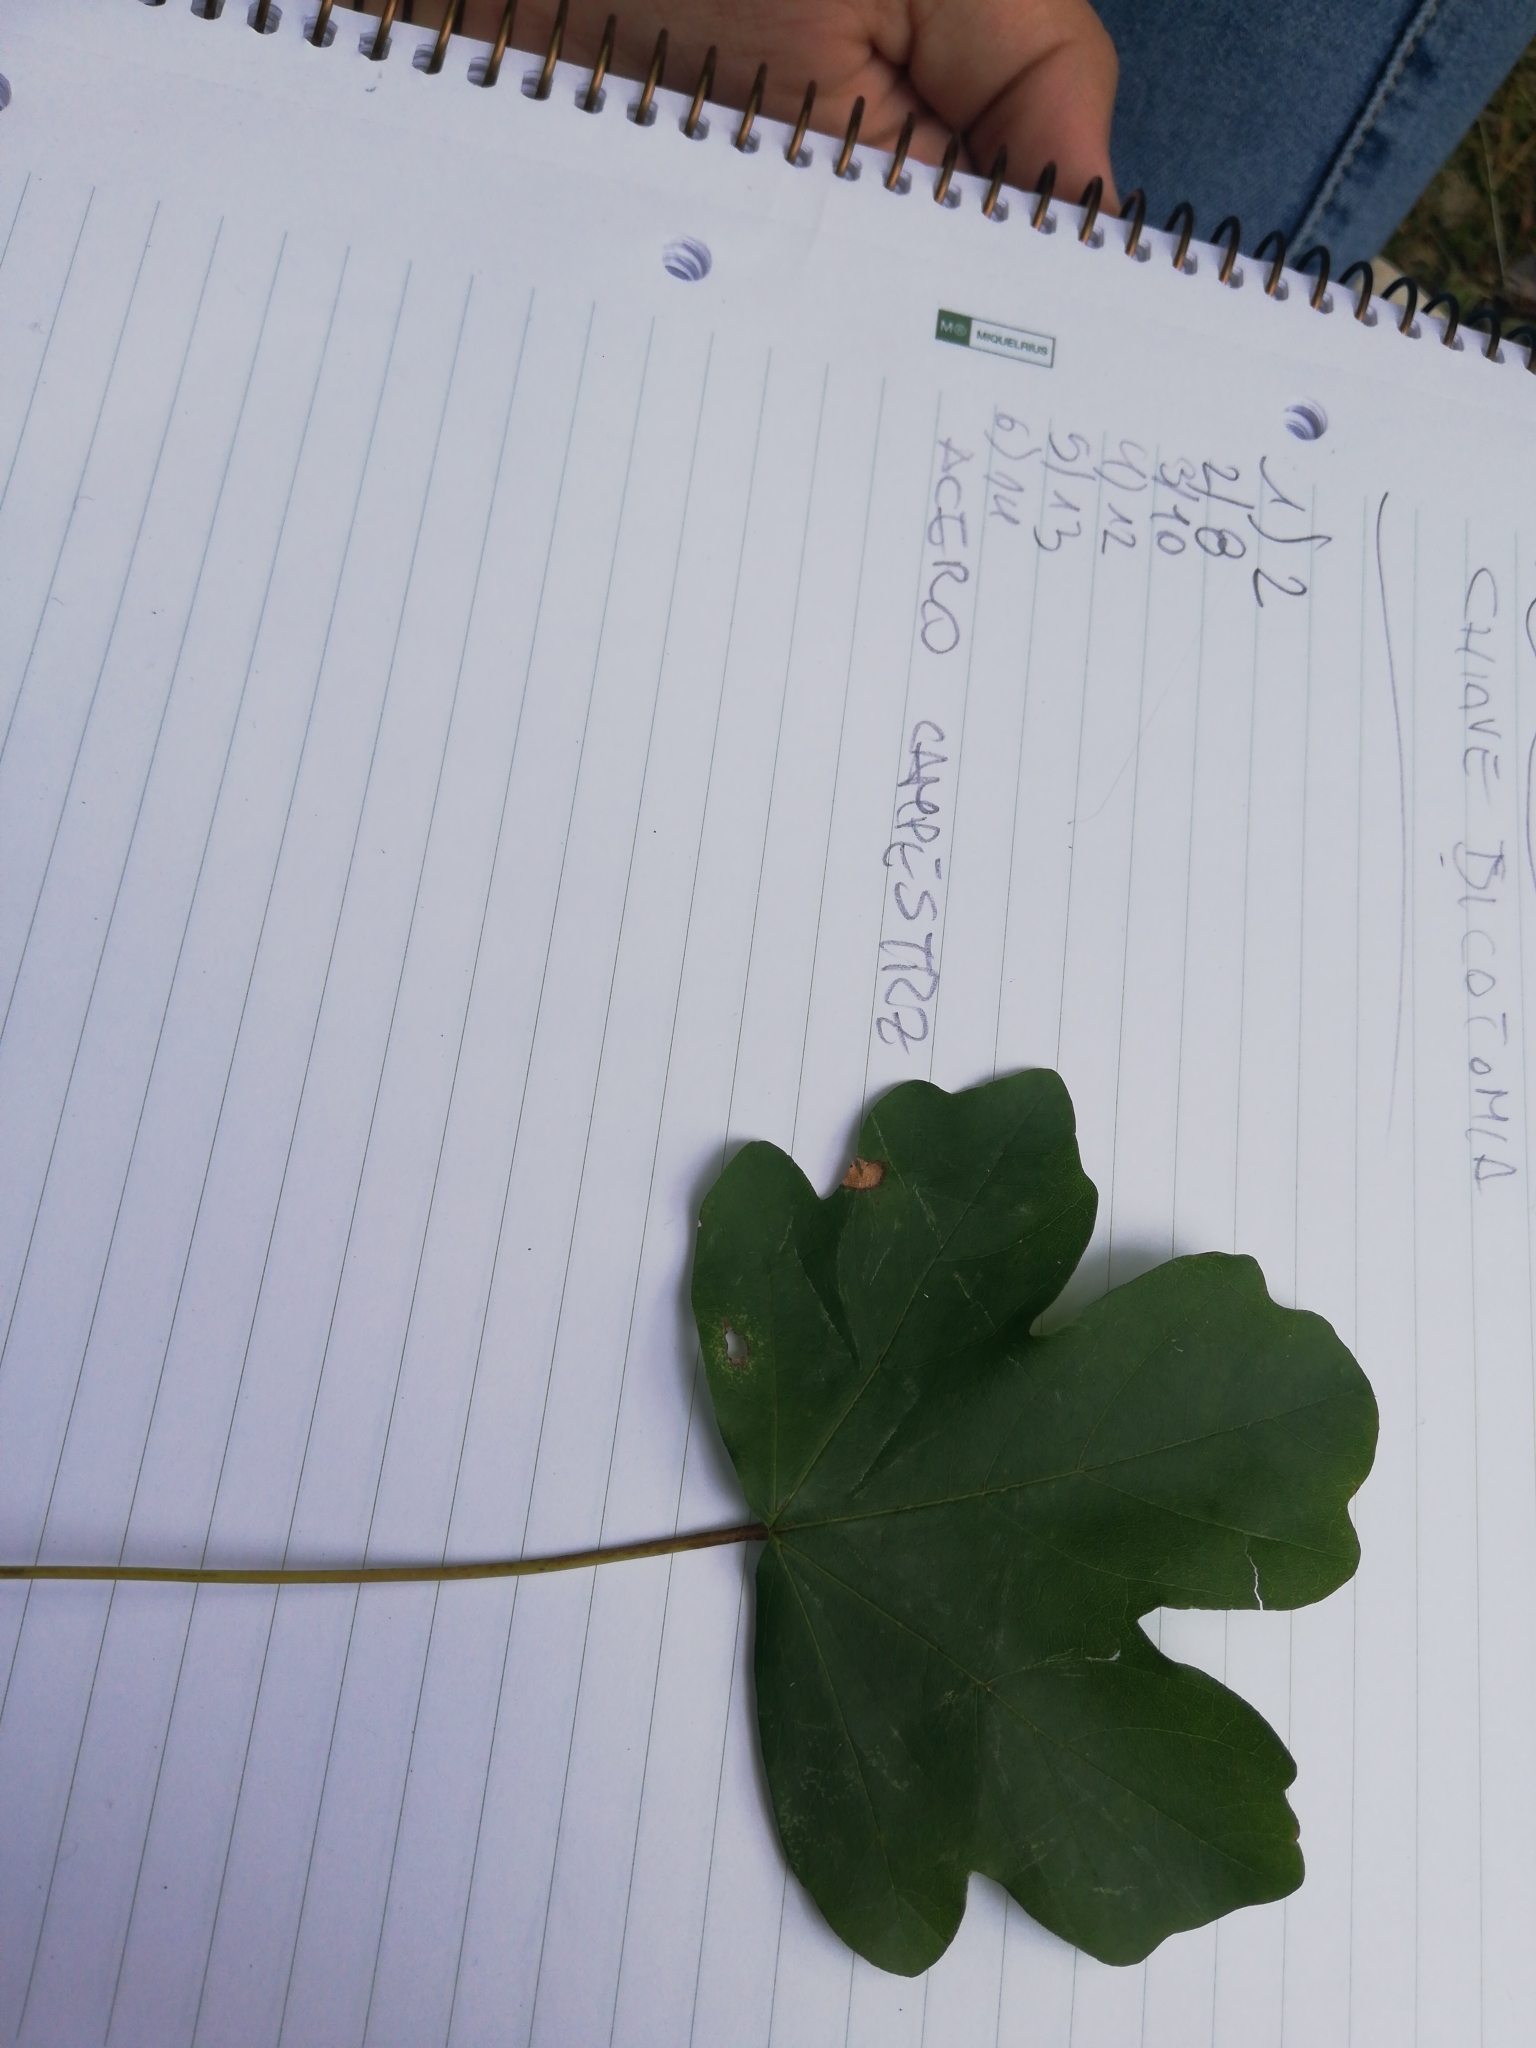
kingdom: Plantae
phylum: Tracheophyta
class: Magnoliopsida
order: Sapindales
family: Sapindaceae
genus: Acer
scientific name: Acer campestre
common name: Field maple
